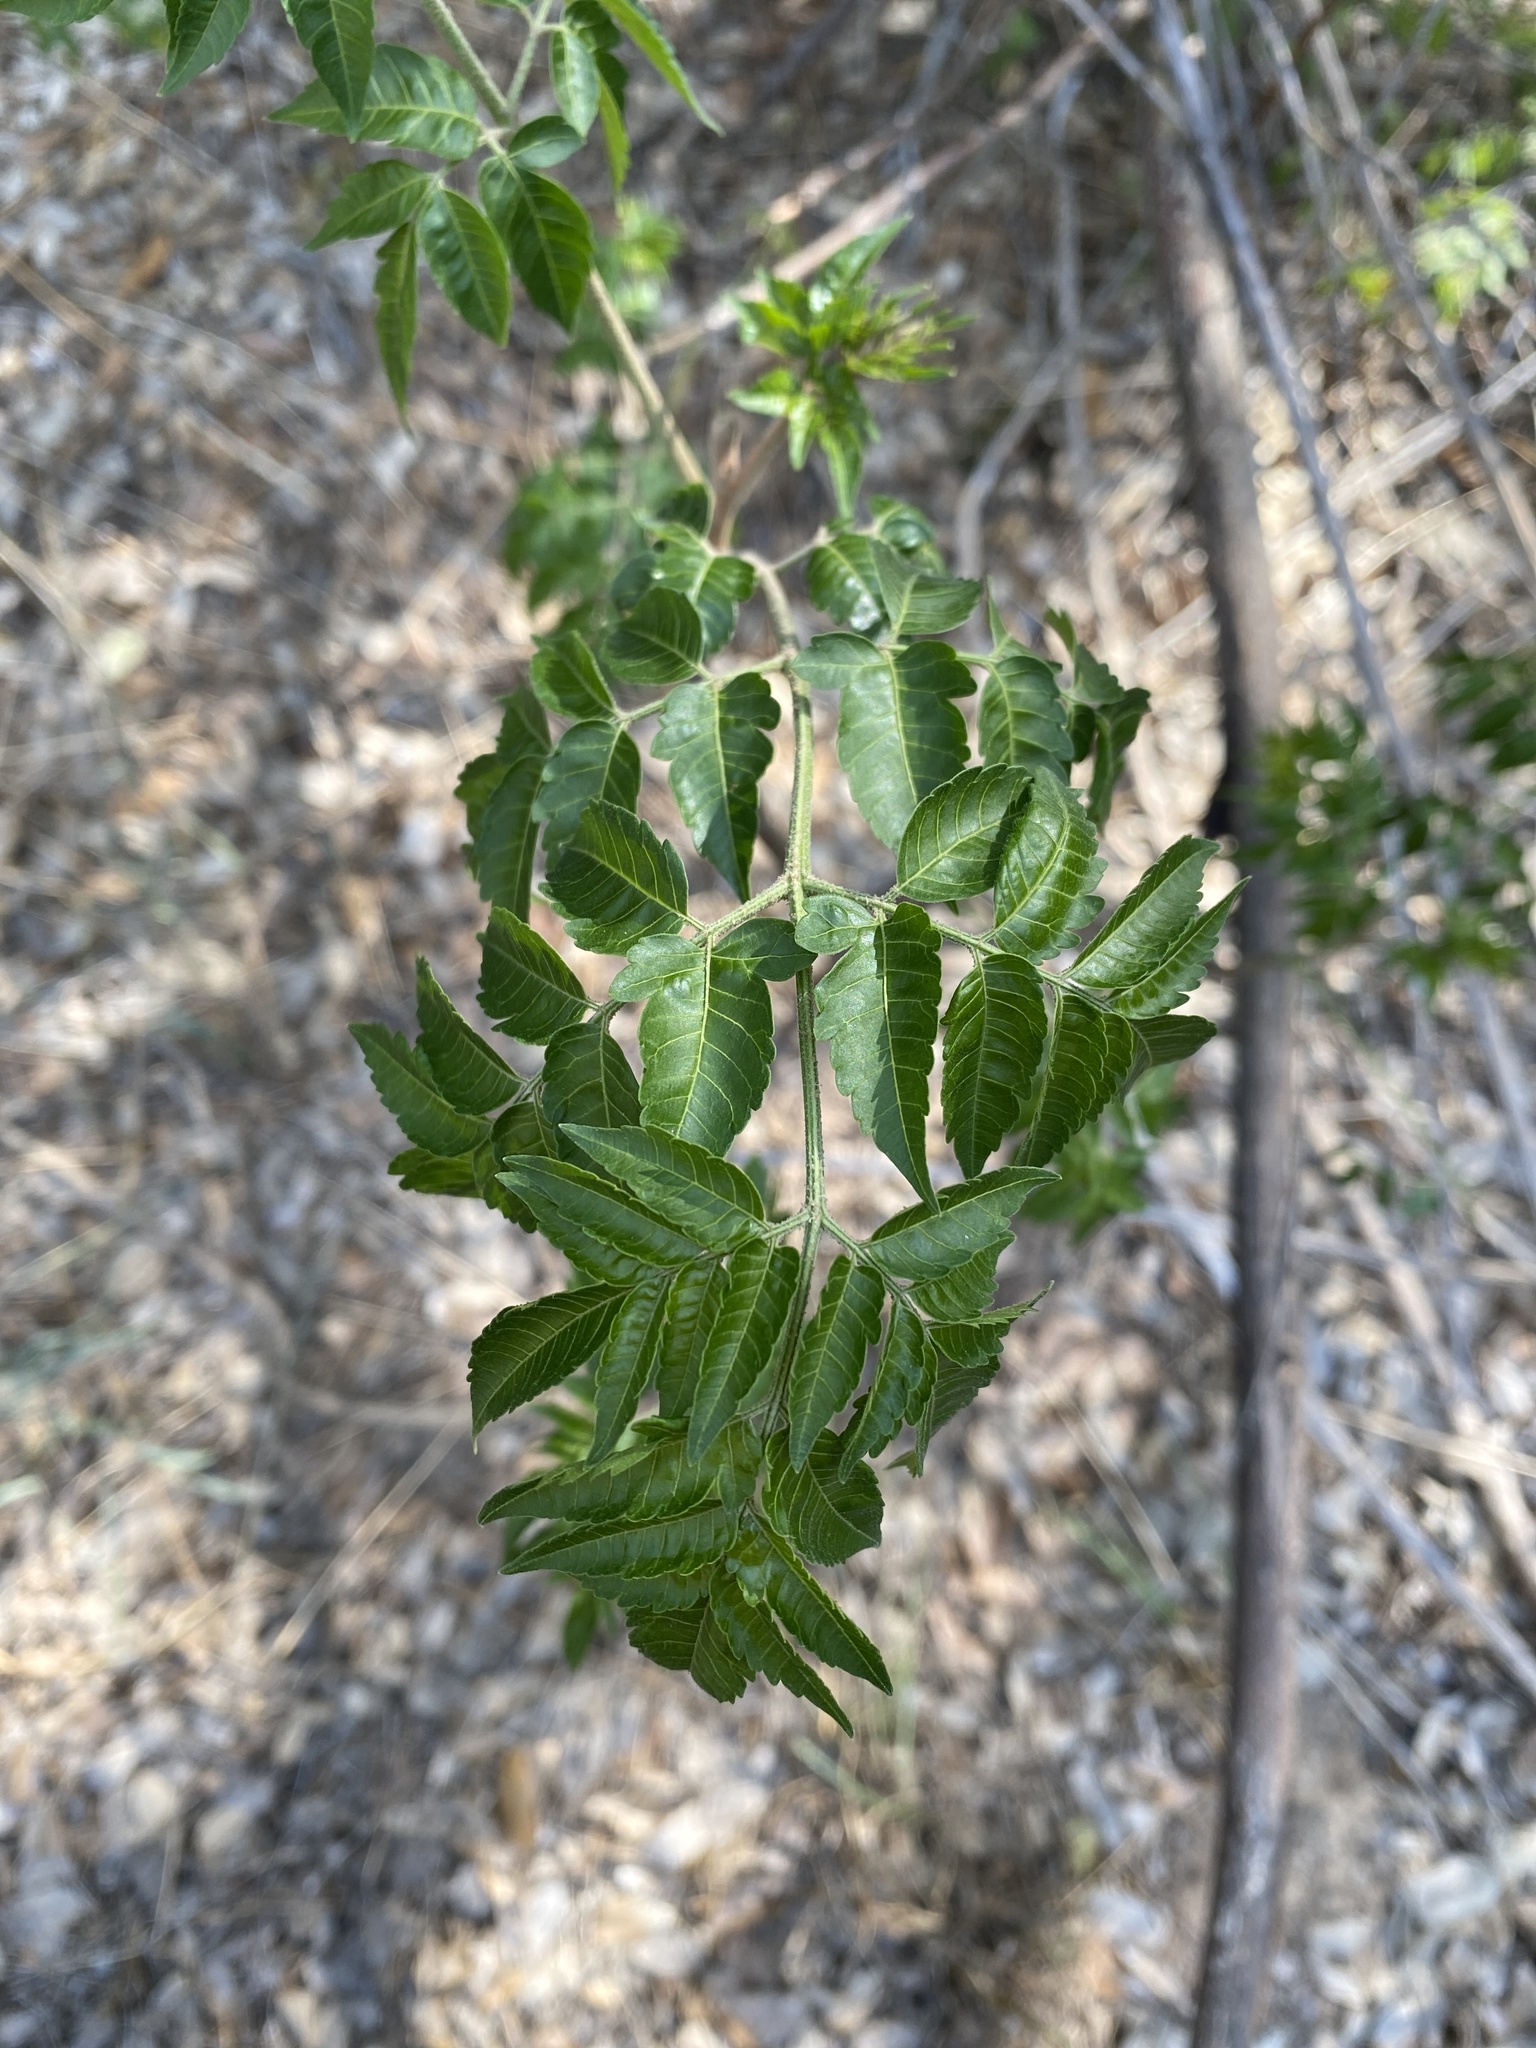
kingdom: Plantae
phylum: Tracheophyta
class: Magnoliopsida
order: Sapindales
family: Meliaceae
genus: Melia
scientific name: Melia azedarach
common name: Chinaberrytree
